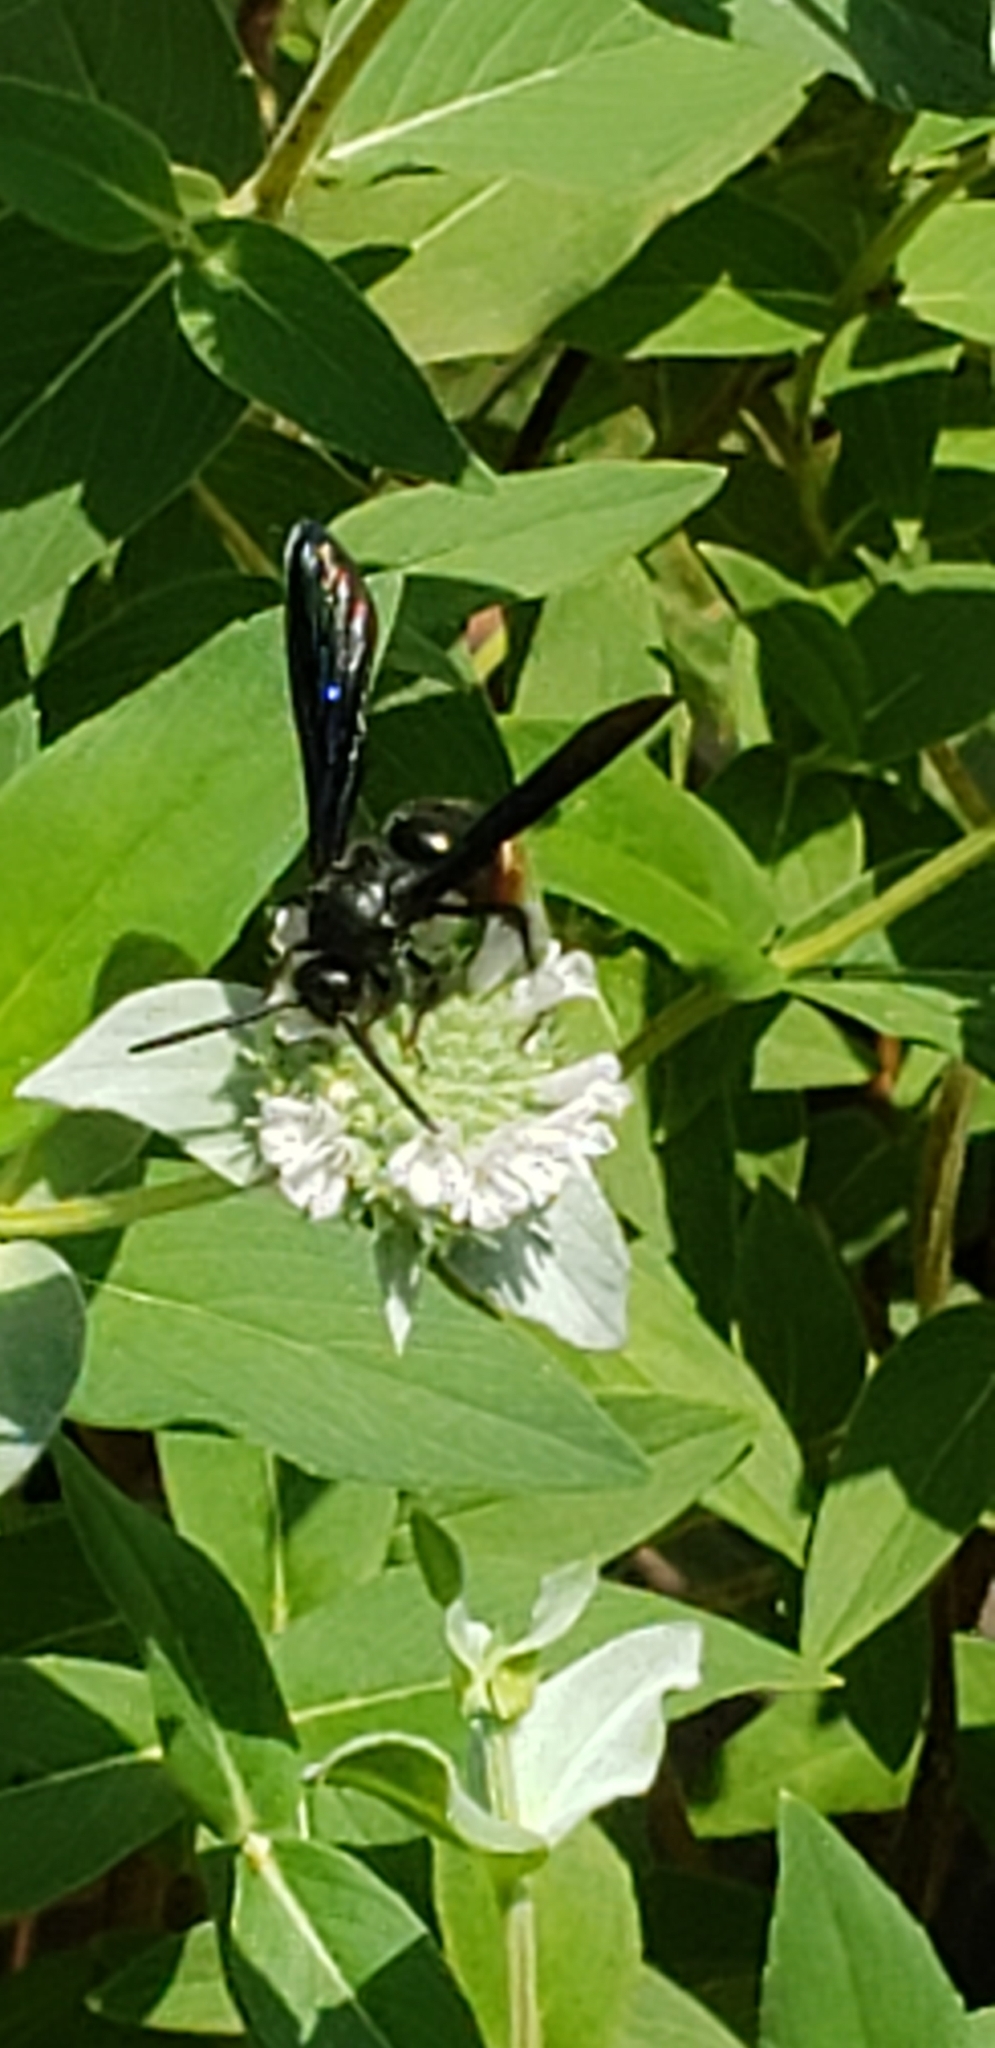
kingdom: Animalia
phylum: Arthropoda
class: Insecta
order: Hymenoptera
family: Scoliidae
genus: Scolia
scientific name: Scolia dubia
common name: Blue-winged scoliid wasp
